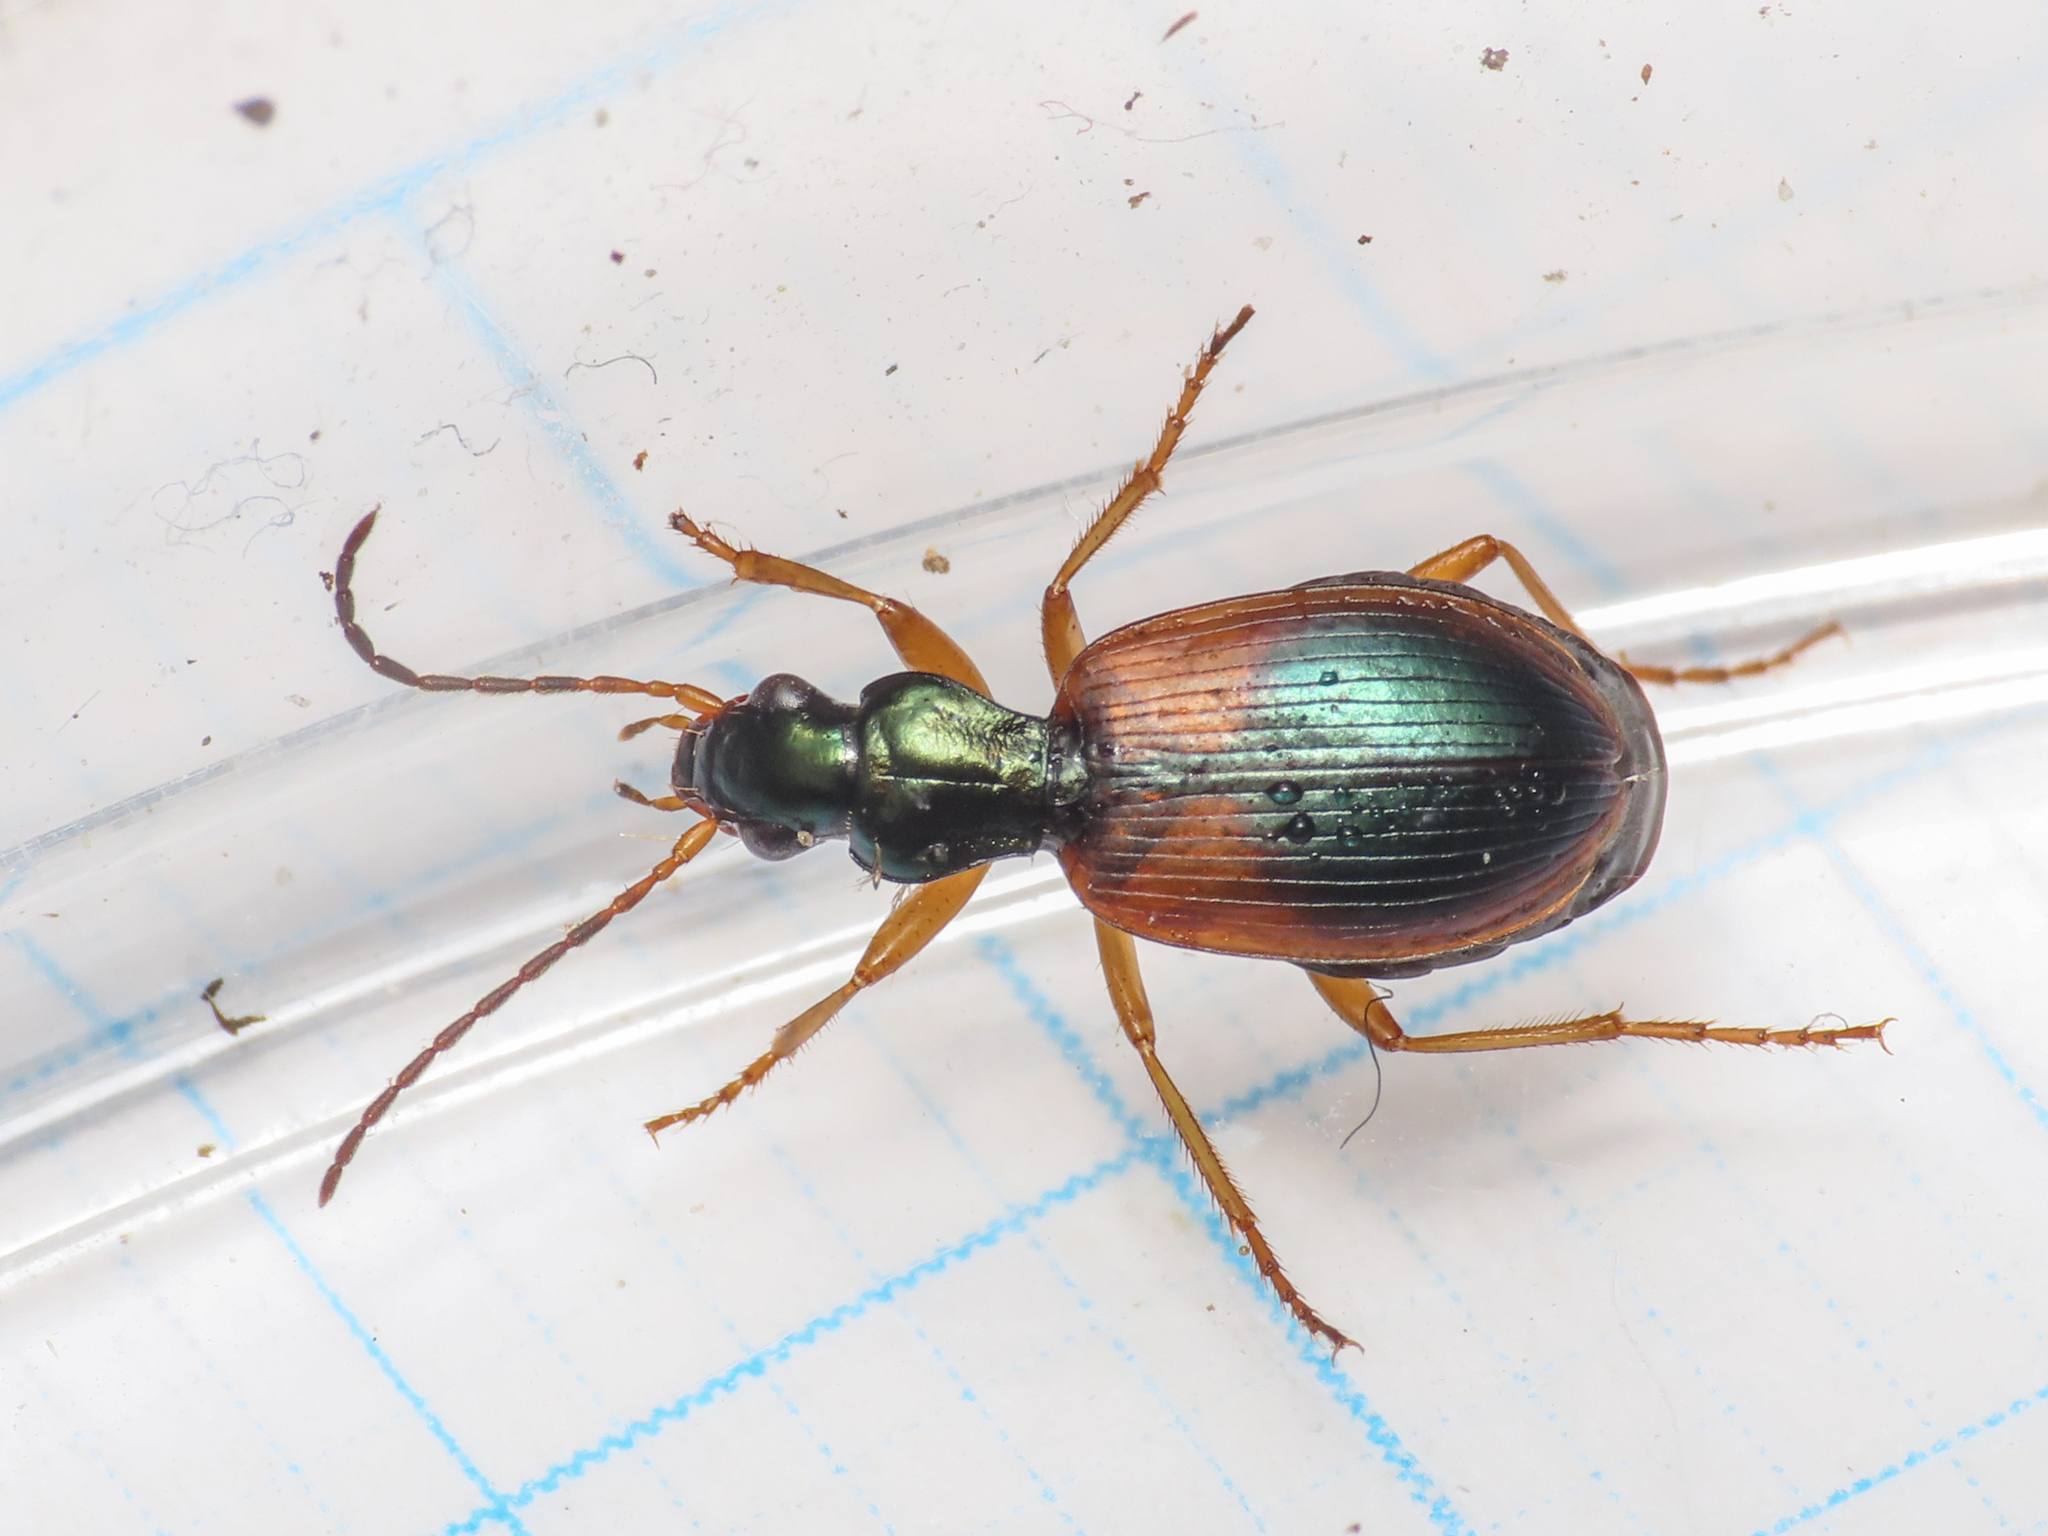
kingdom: Animalia
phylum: Arthropoda
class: Insecta
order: Coleoptera
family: Carabidae
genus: Anchomenus
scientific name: Anchomenus dorsalis
